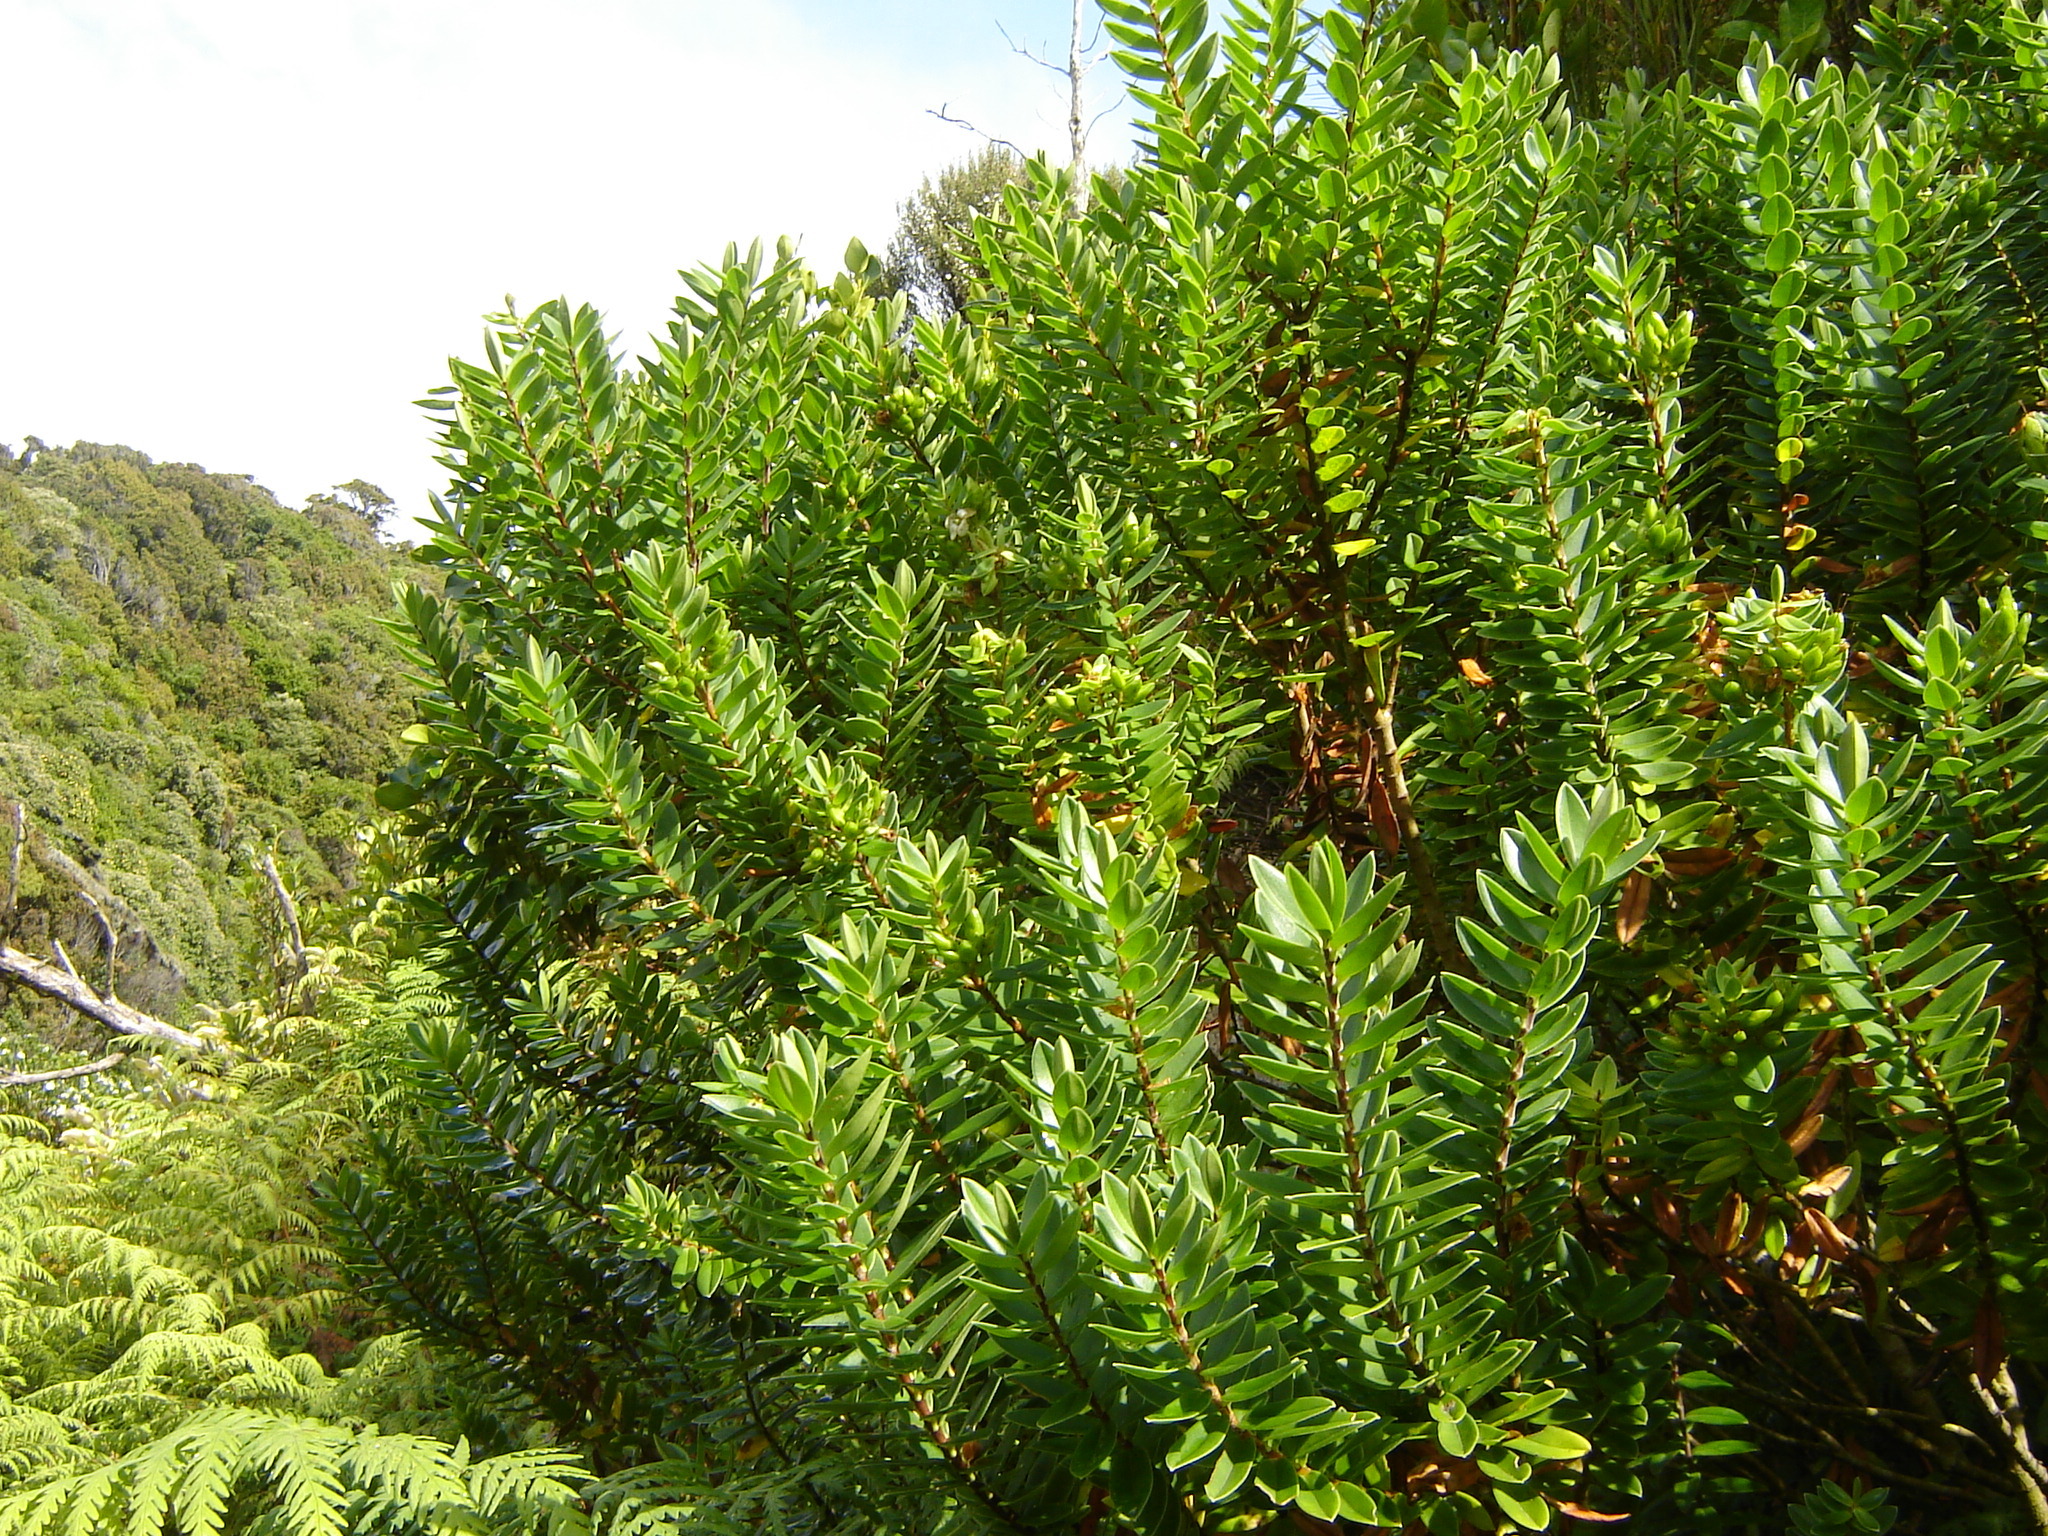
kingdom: Plantae
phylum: Tracheophyta
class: Magnoliopsida
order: Lamiales
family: Plantaginaceae
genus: Veronica
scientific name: Veronica elliptica
